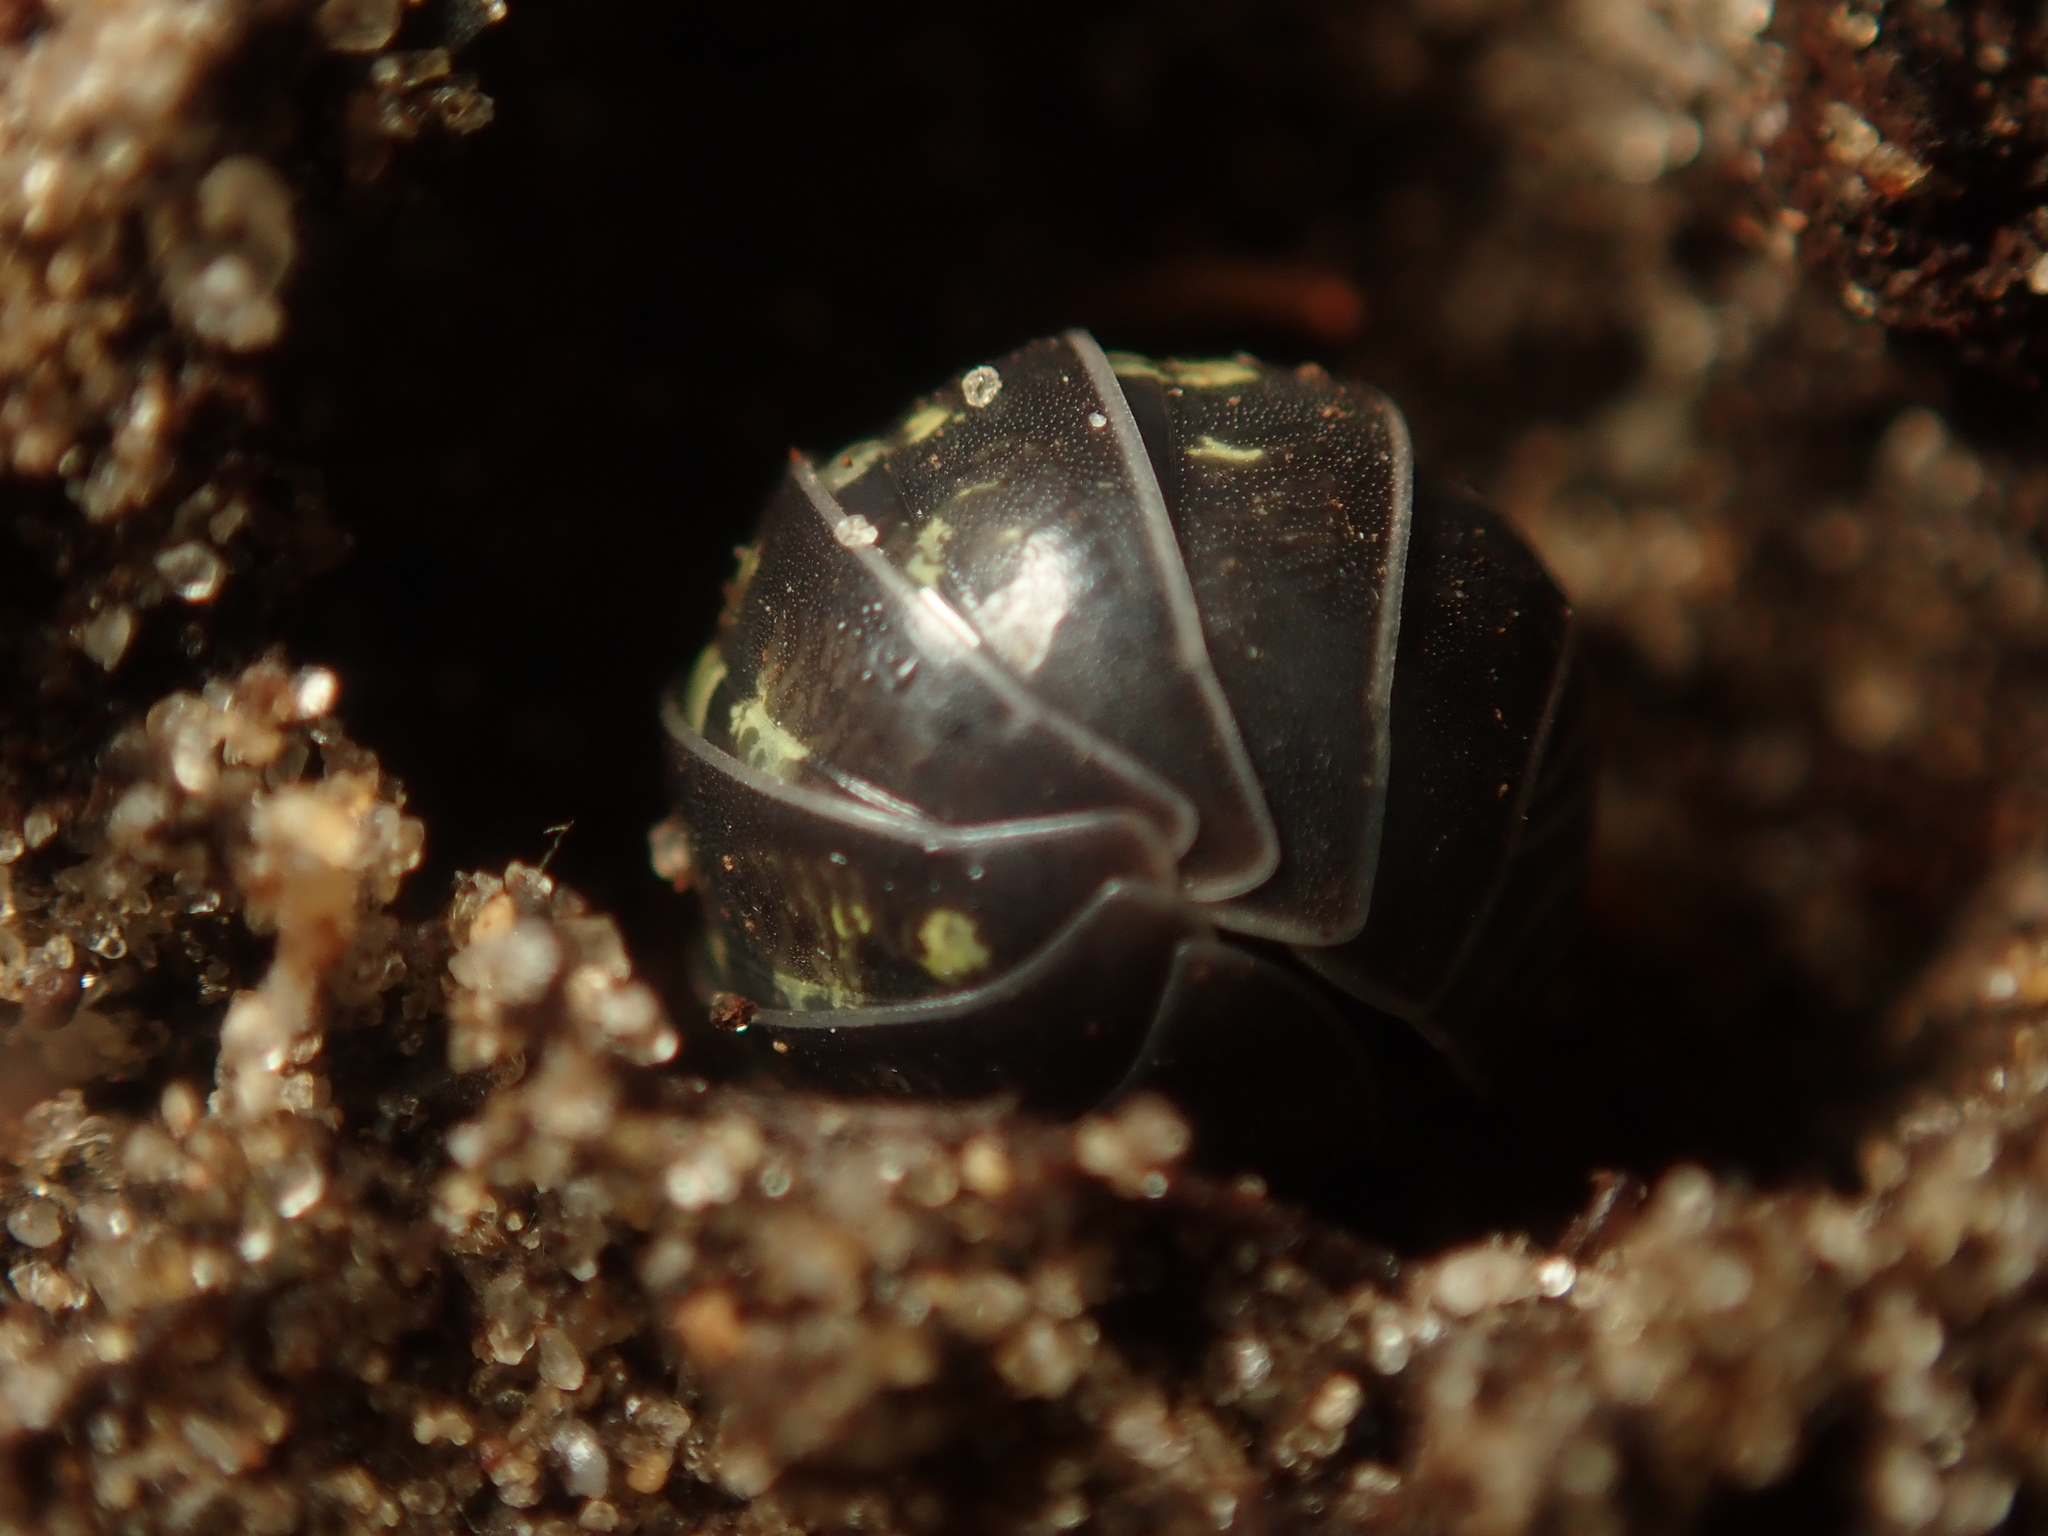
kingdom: Animalia
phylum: Arthropoda
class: Malacostraca
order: Isopoda
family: Armadillidiidae
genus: Armadillidium
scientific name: Armadillidium vulgare
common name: Common pill woodlouse
